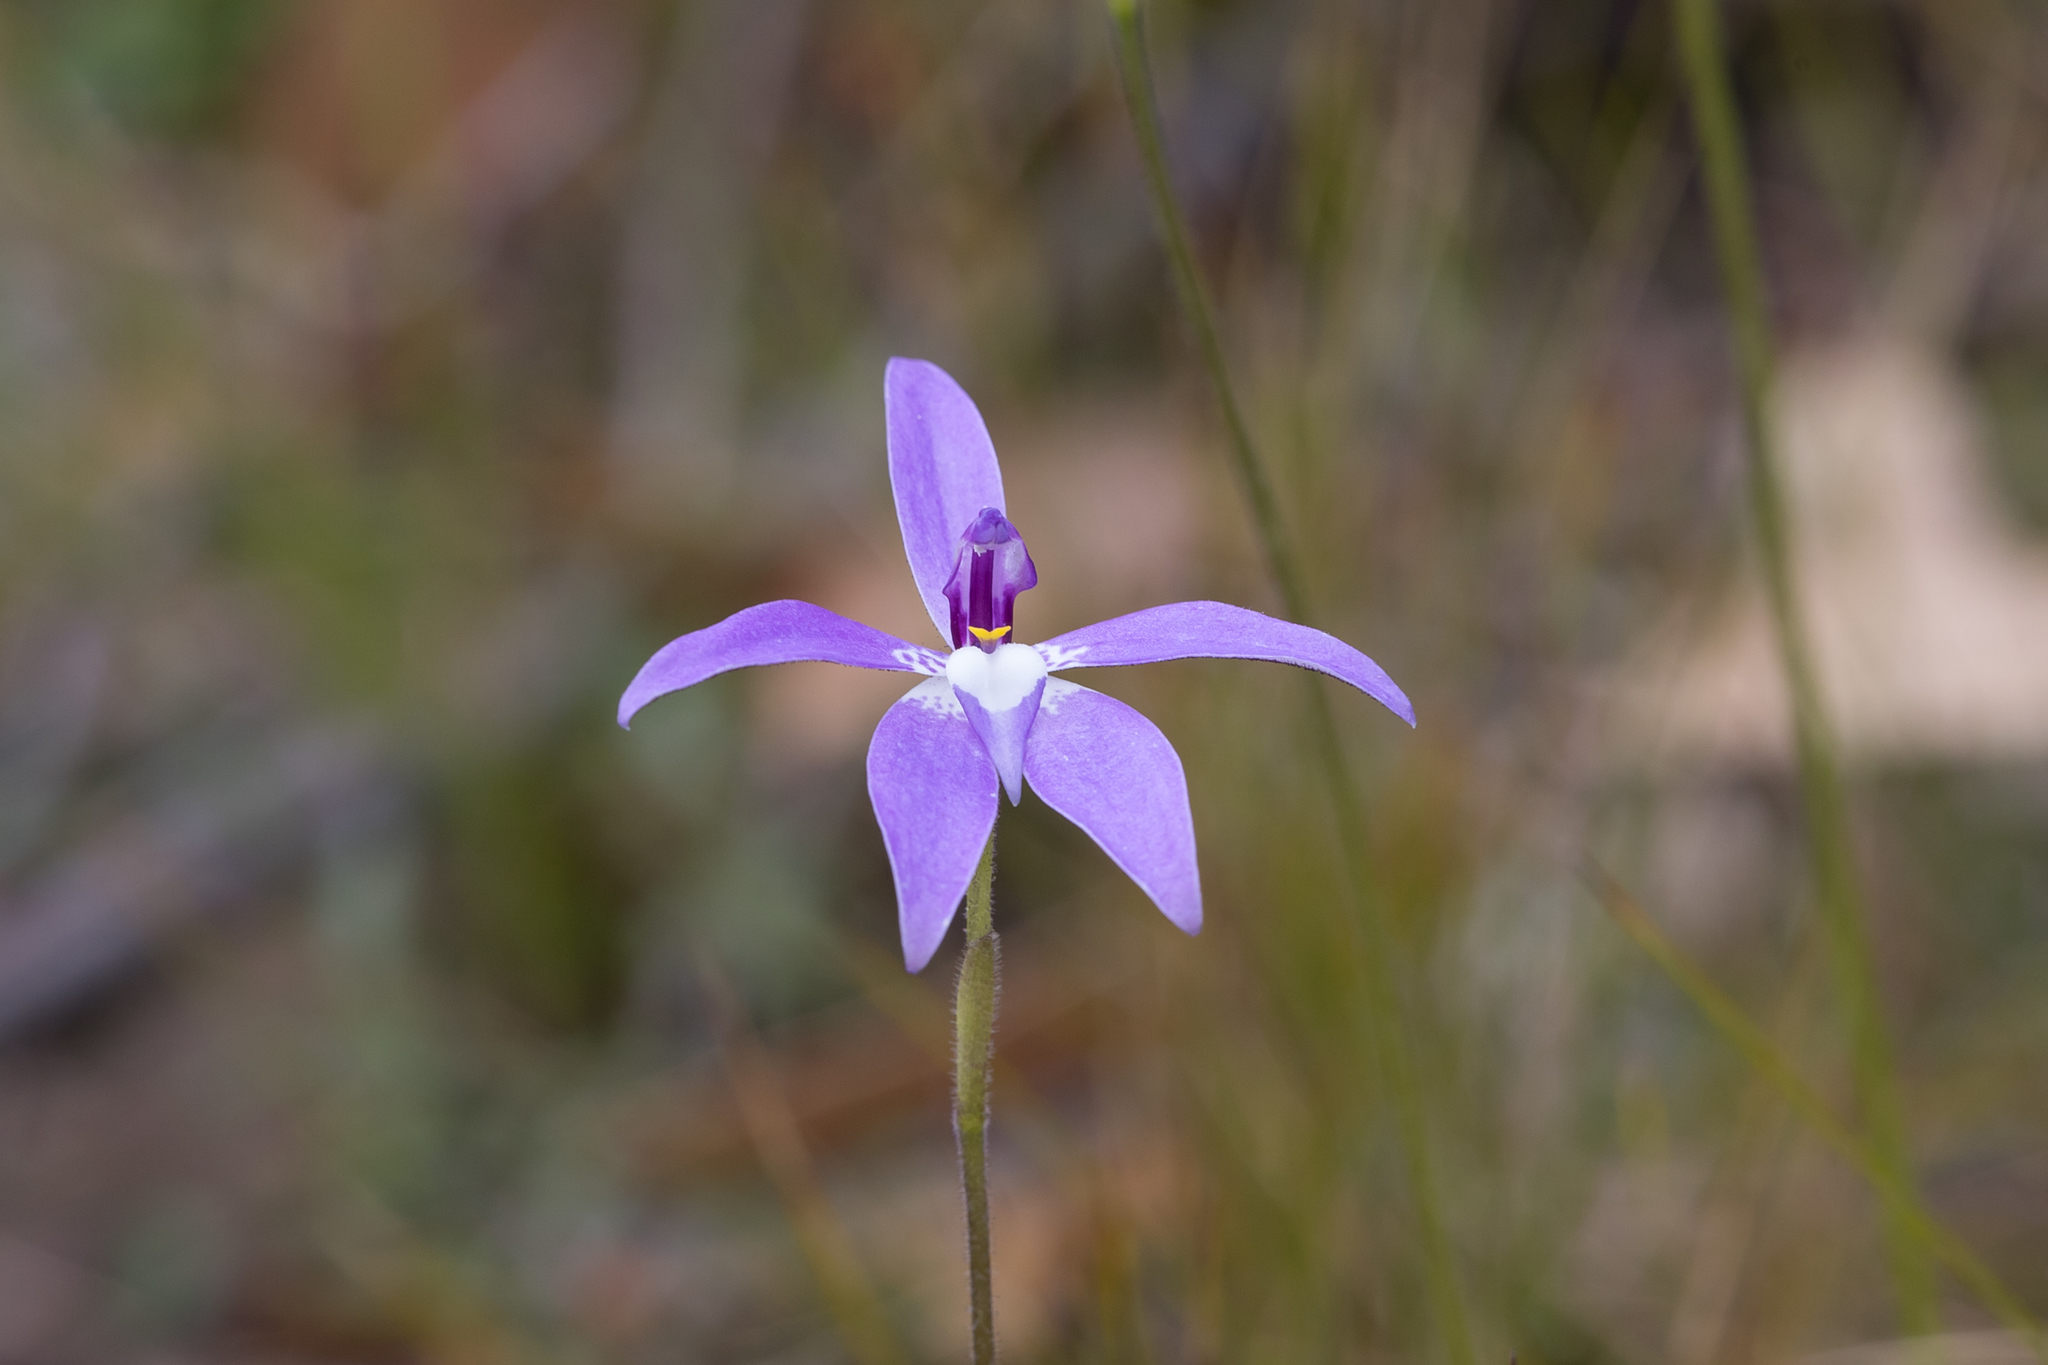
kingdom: Plantae
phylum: Tracheophyta
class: Liliopsida
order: Asparagales
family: Orchidaceae
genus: Caladenia
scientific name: Caladenia major
